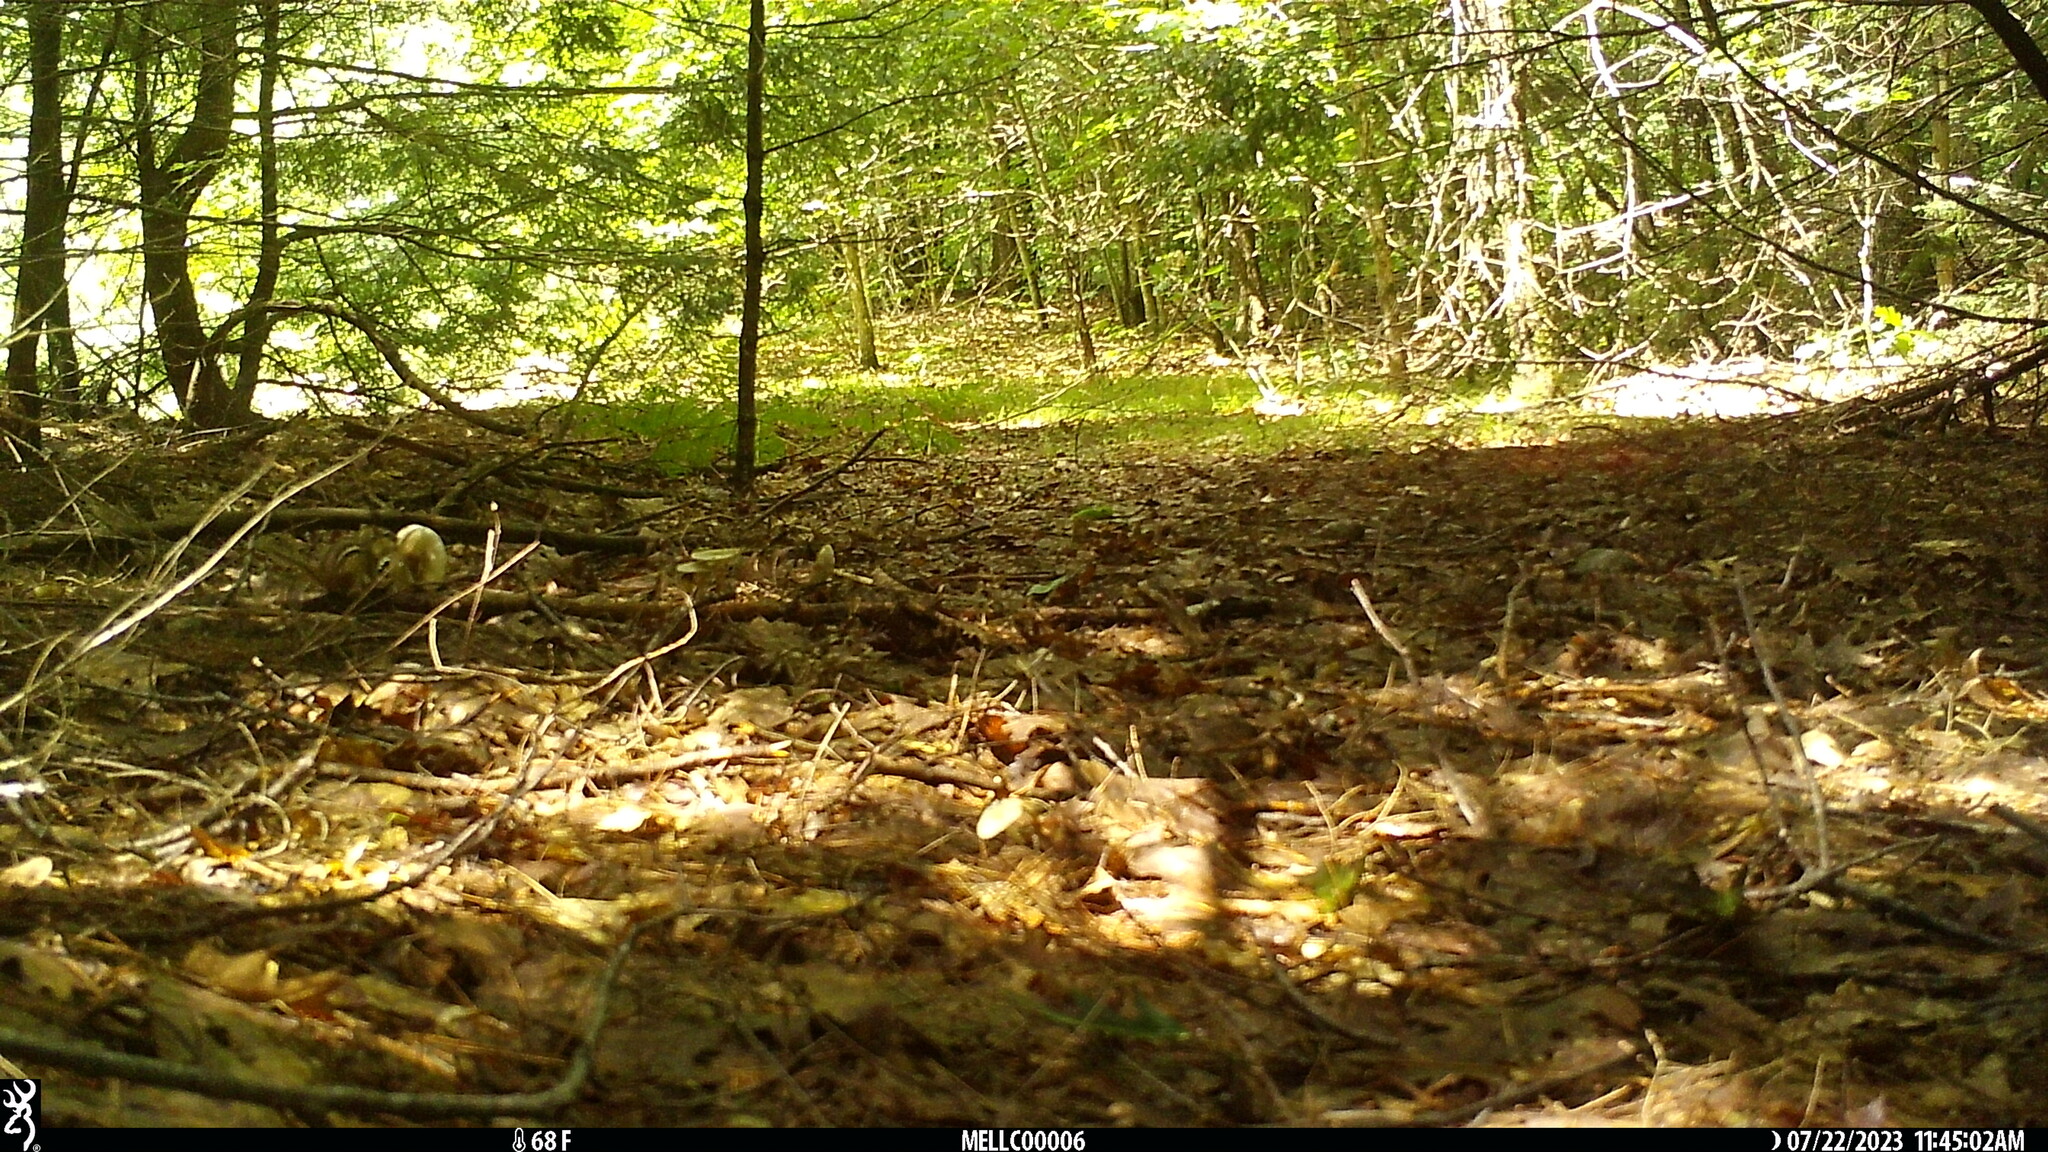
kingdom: Animalia
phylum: Chordata
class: Mammalia
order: Rodentia
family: Sciuridae
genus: Tamias
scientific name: Tamias striatus
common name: Eastern chipmunk
